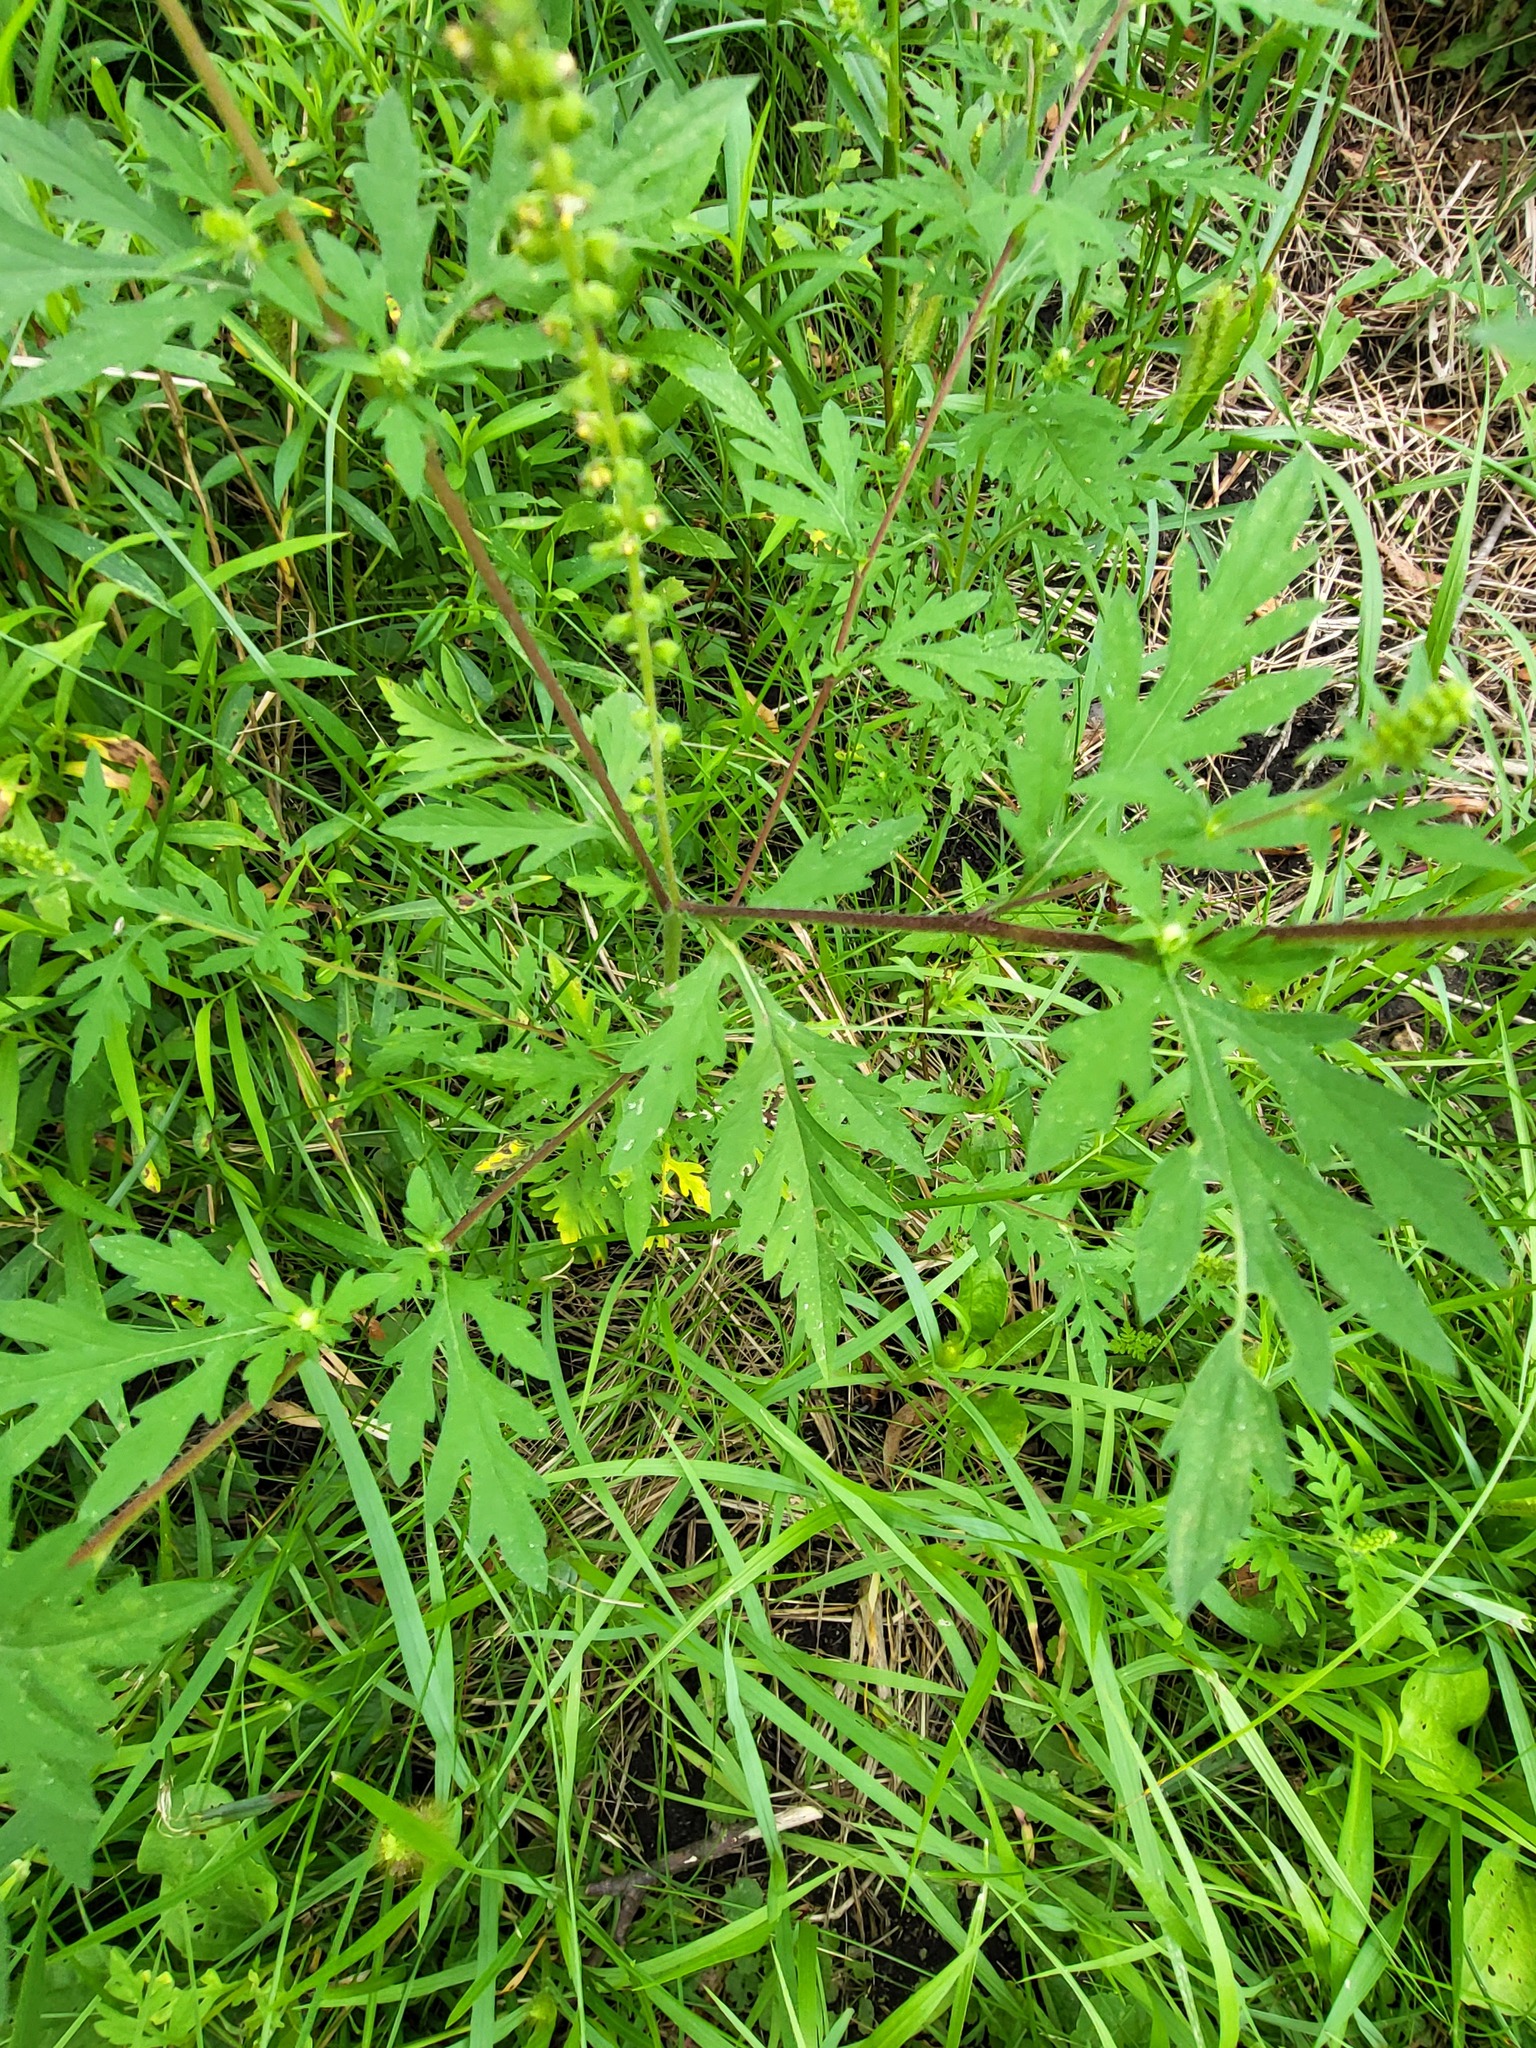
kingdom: Plantae
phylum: Tracheophyta
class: Magnoliopsida
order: Asterales
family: Asteraceae
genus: Ambrosia
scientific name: Ambrosia artemisiifolia
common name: Annual ragweed
